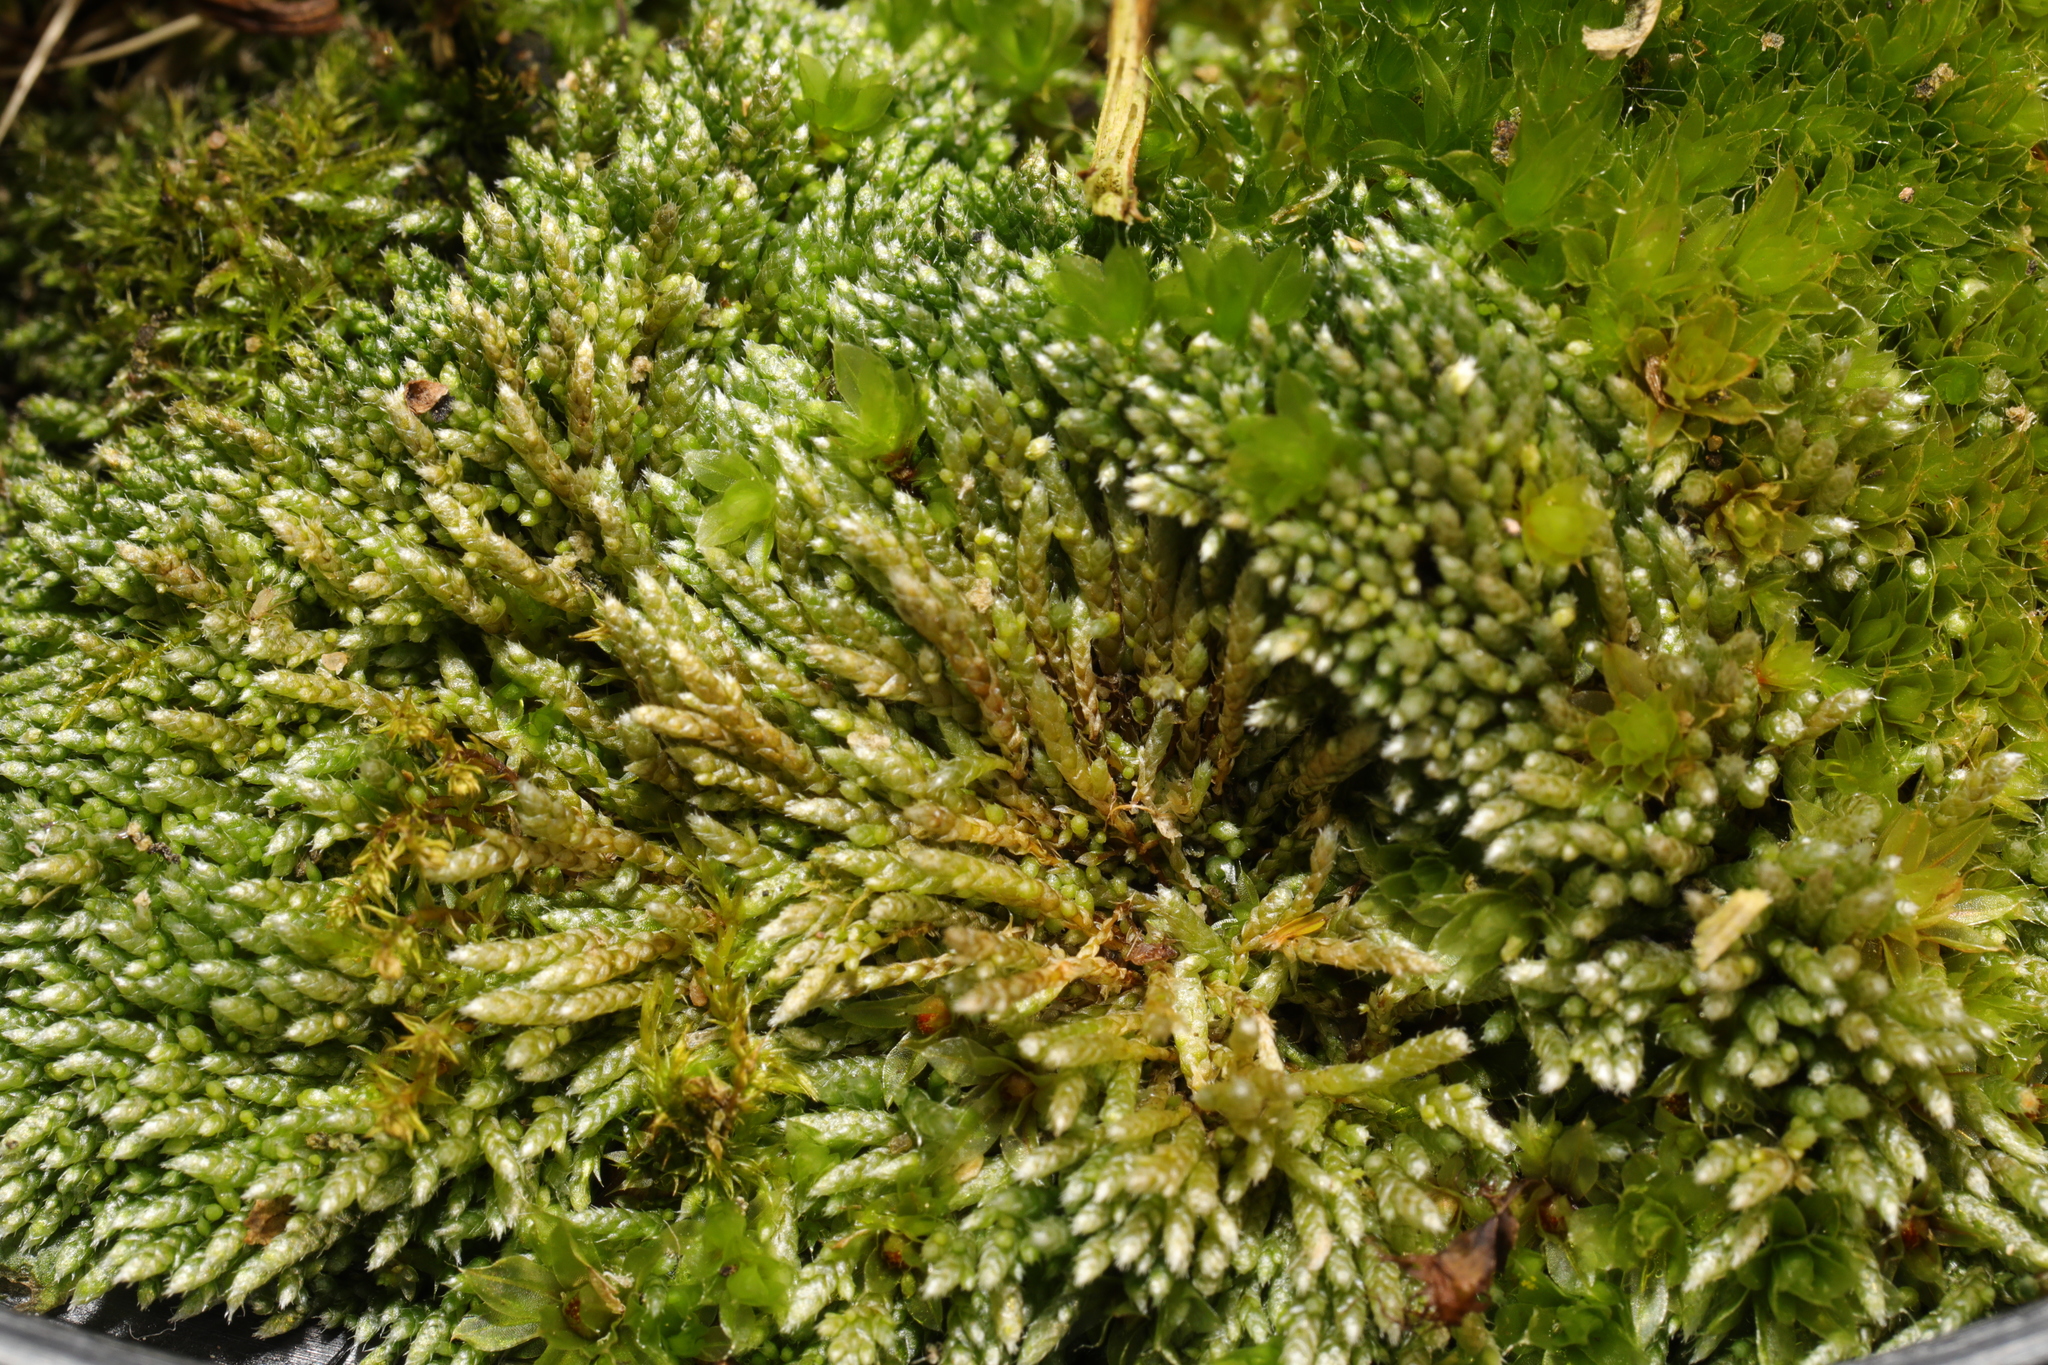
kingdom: Plantae
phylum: Bryophyta
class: Bryopsida
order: Bryales
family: Bryaceae
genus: Rosulabryum
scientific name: Rosulabryum capillare
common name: Capillary thread-moss
